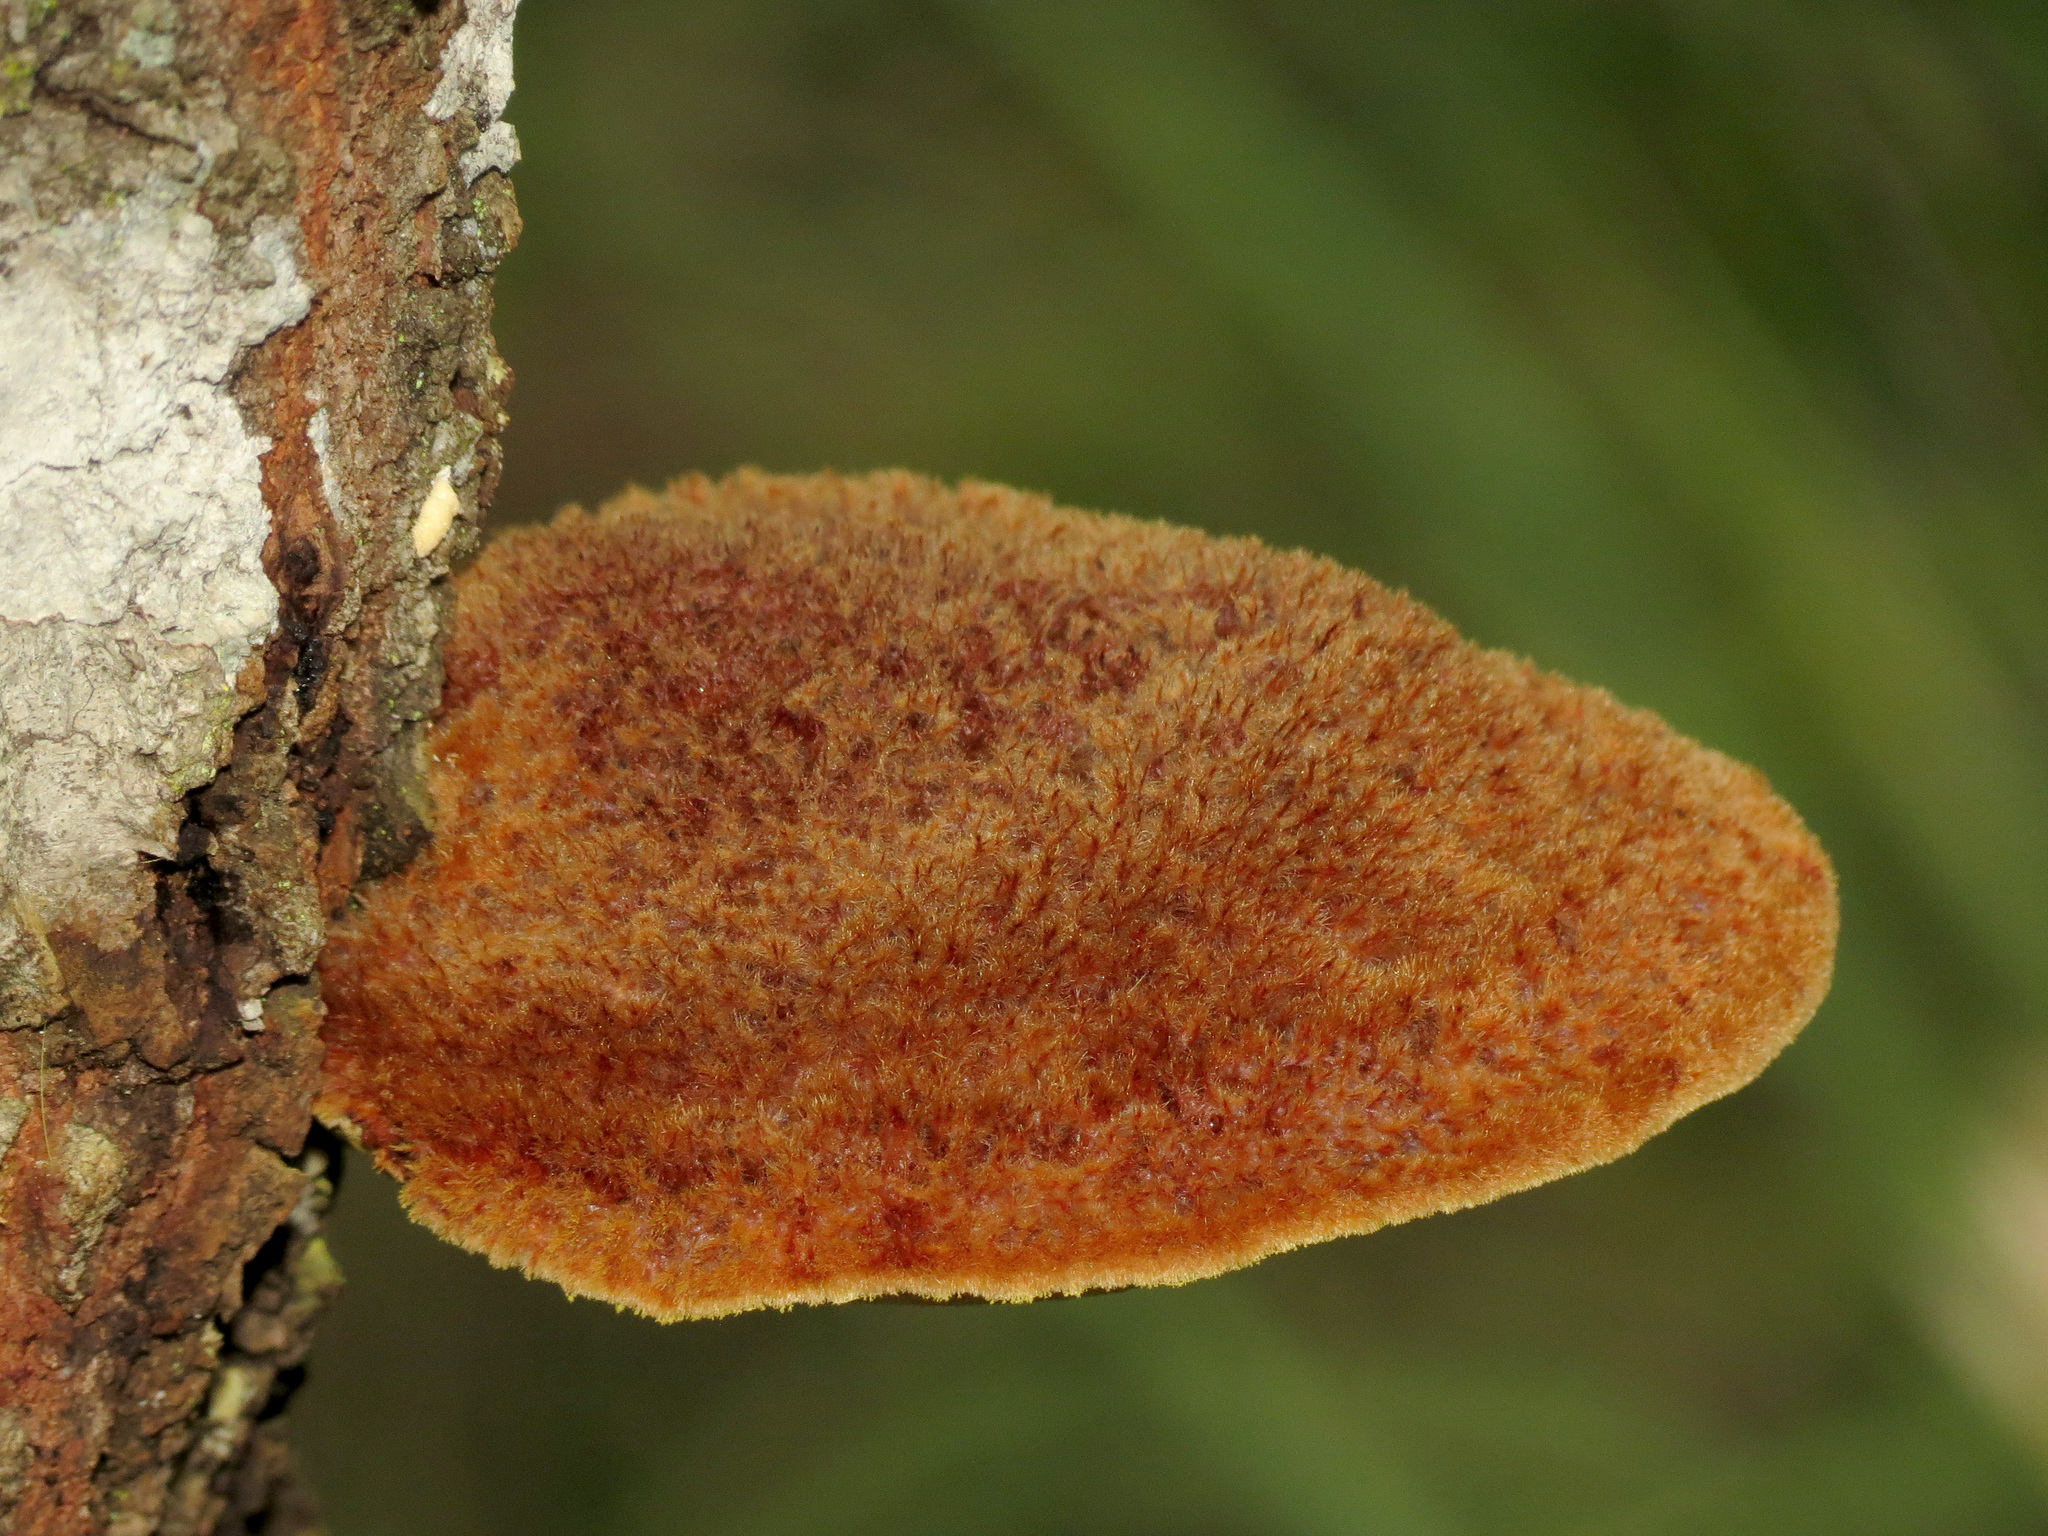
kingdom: Fungi
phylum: Basidiomycota
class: Agaricomycetes
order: Hymenochaetales
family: Hymenochaetaceae
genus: Inonotus
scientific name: Inonotus hispidus
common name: Shaggy bracket
